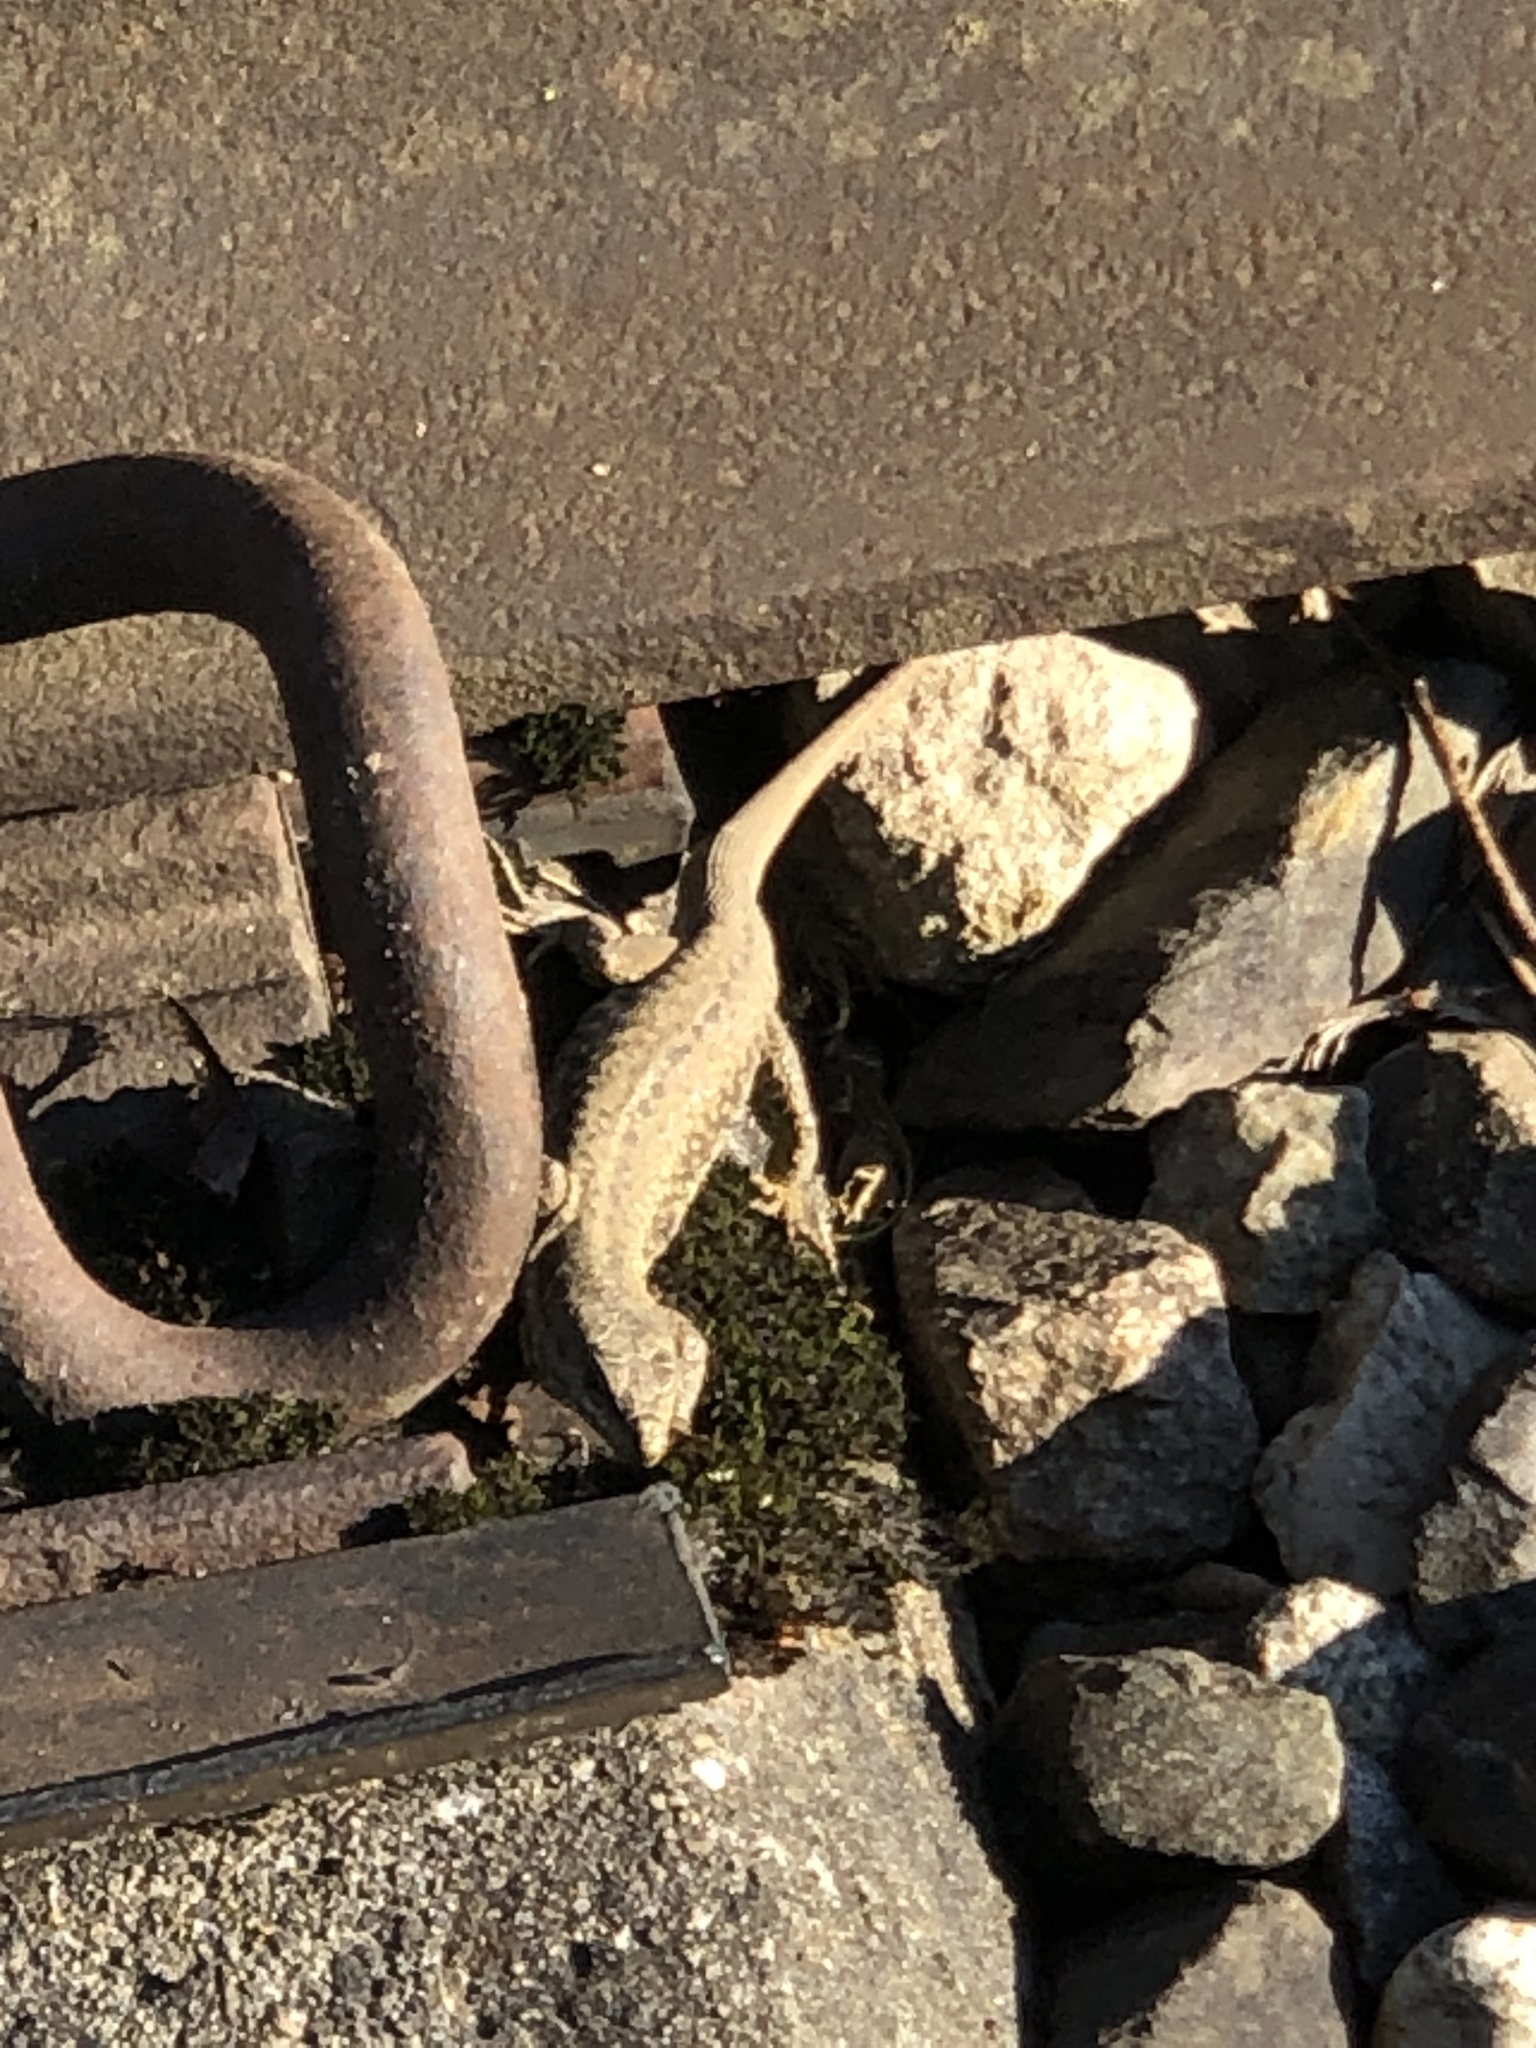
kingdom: Animalia
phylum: Chordata
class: Squamata
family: Lacertidae
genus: Podarcis
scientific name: Podarcis muralis
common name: Common wall lizard
